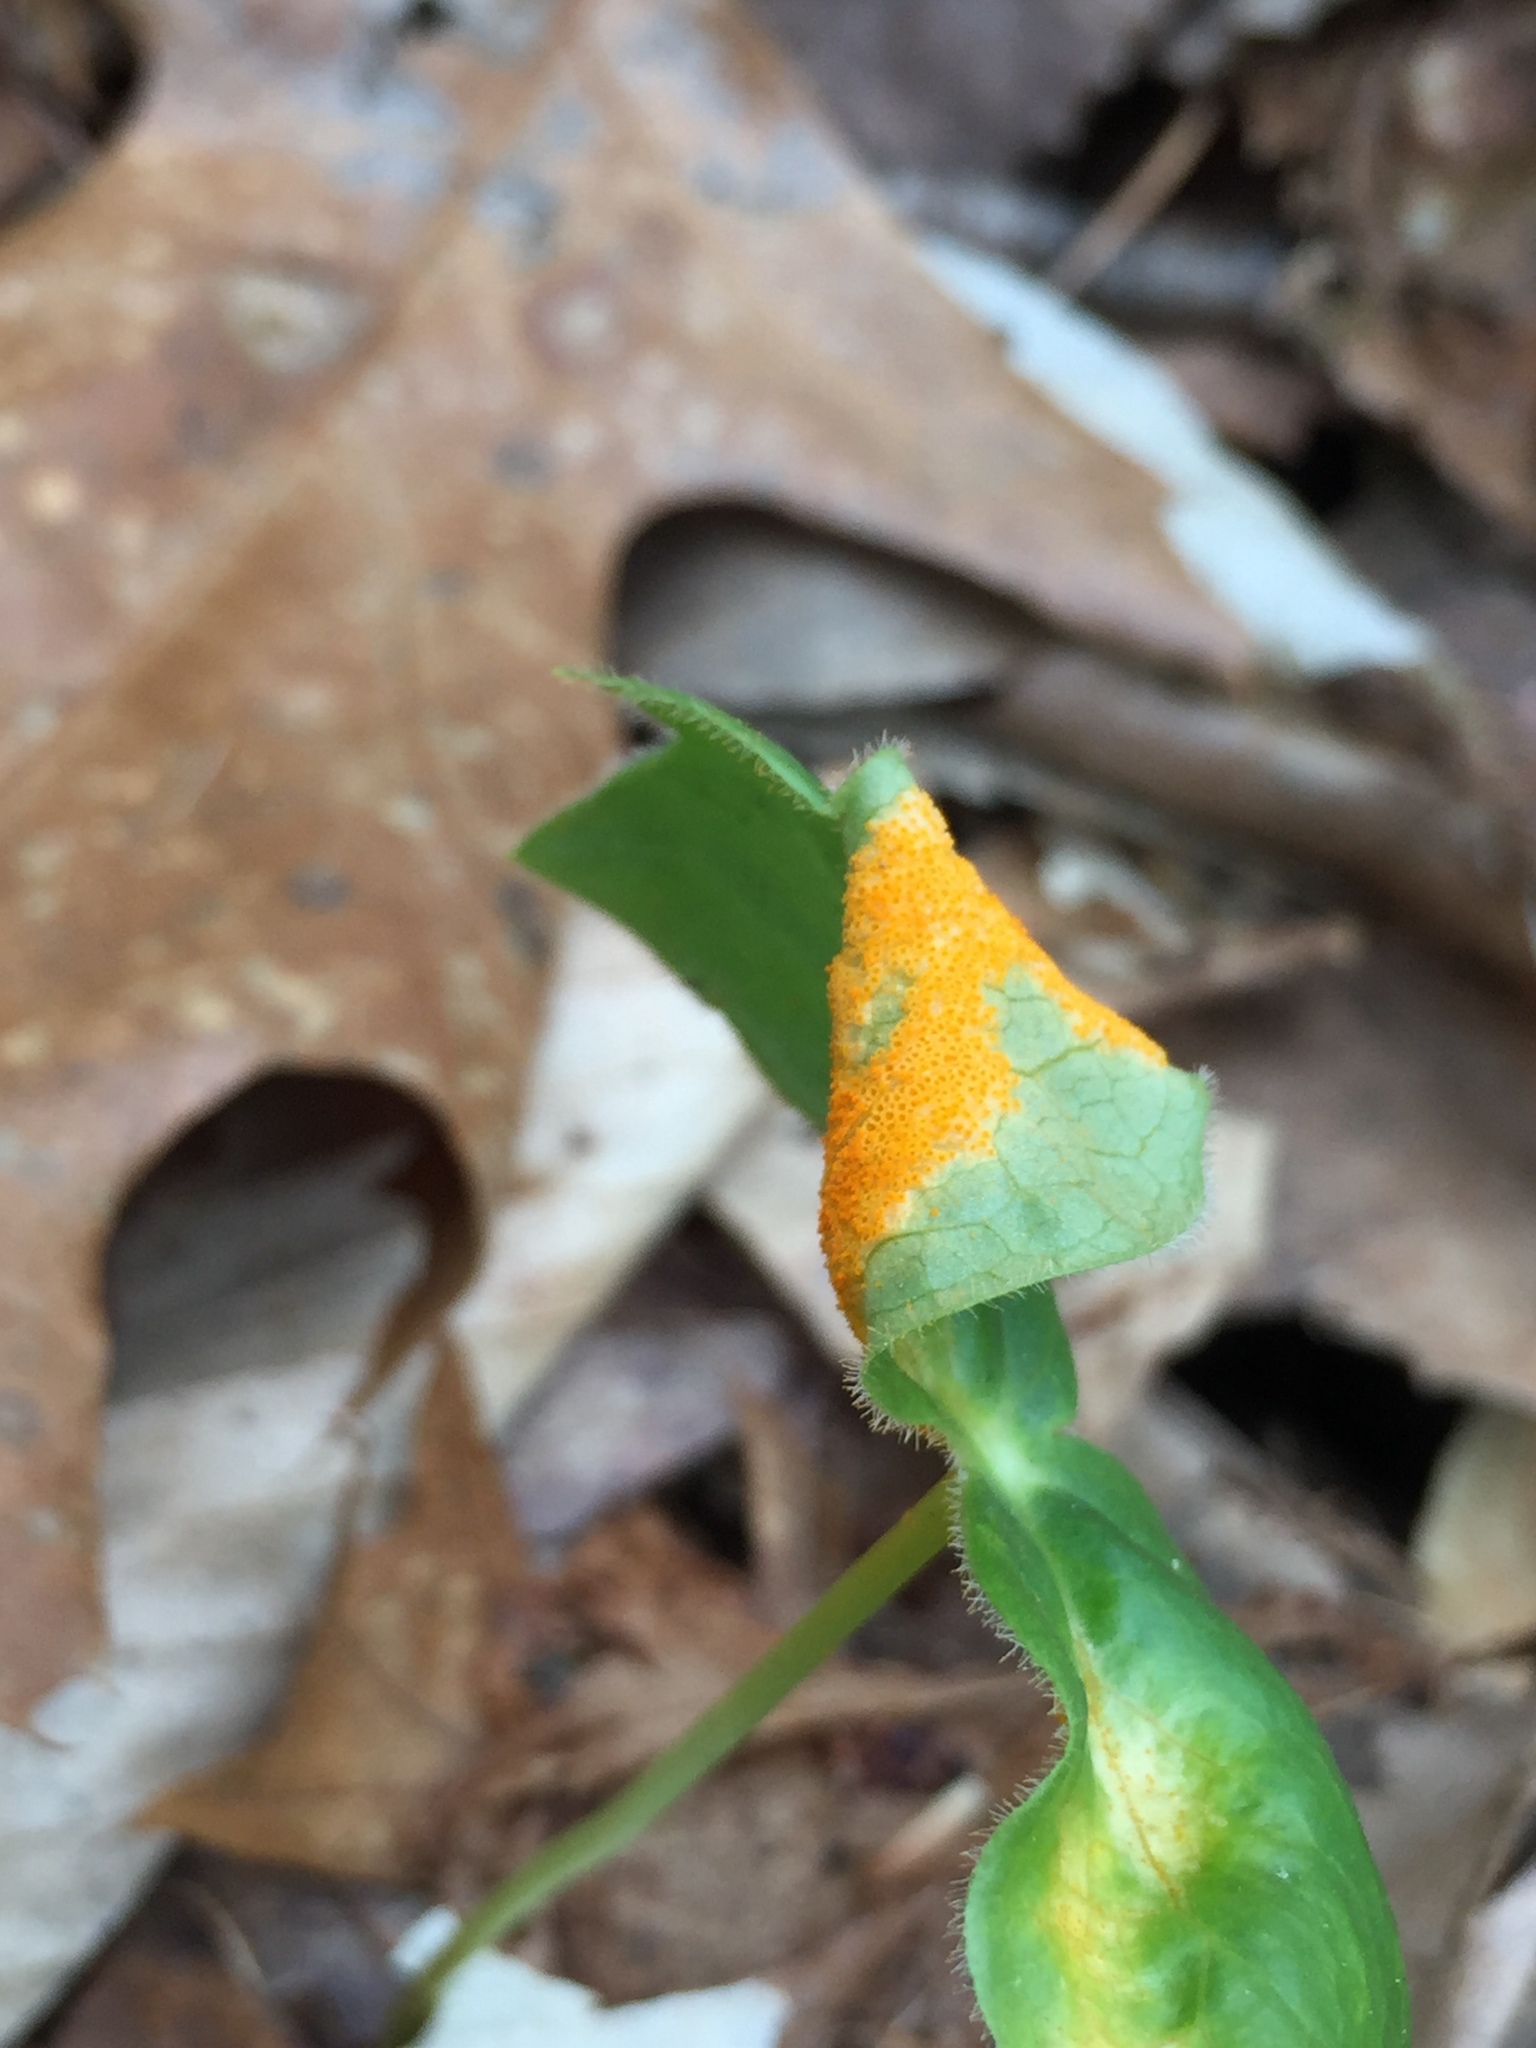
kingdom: Fungi
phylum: Basidiomycota
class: Pucciniomycetes
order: Pucciniales
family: Pucciniaceae
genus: Puccinia
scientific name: Puccinia podophylli
